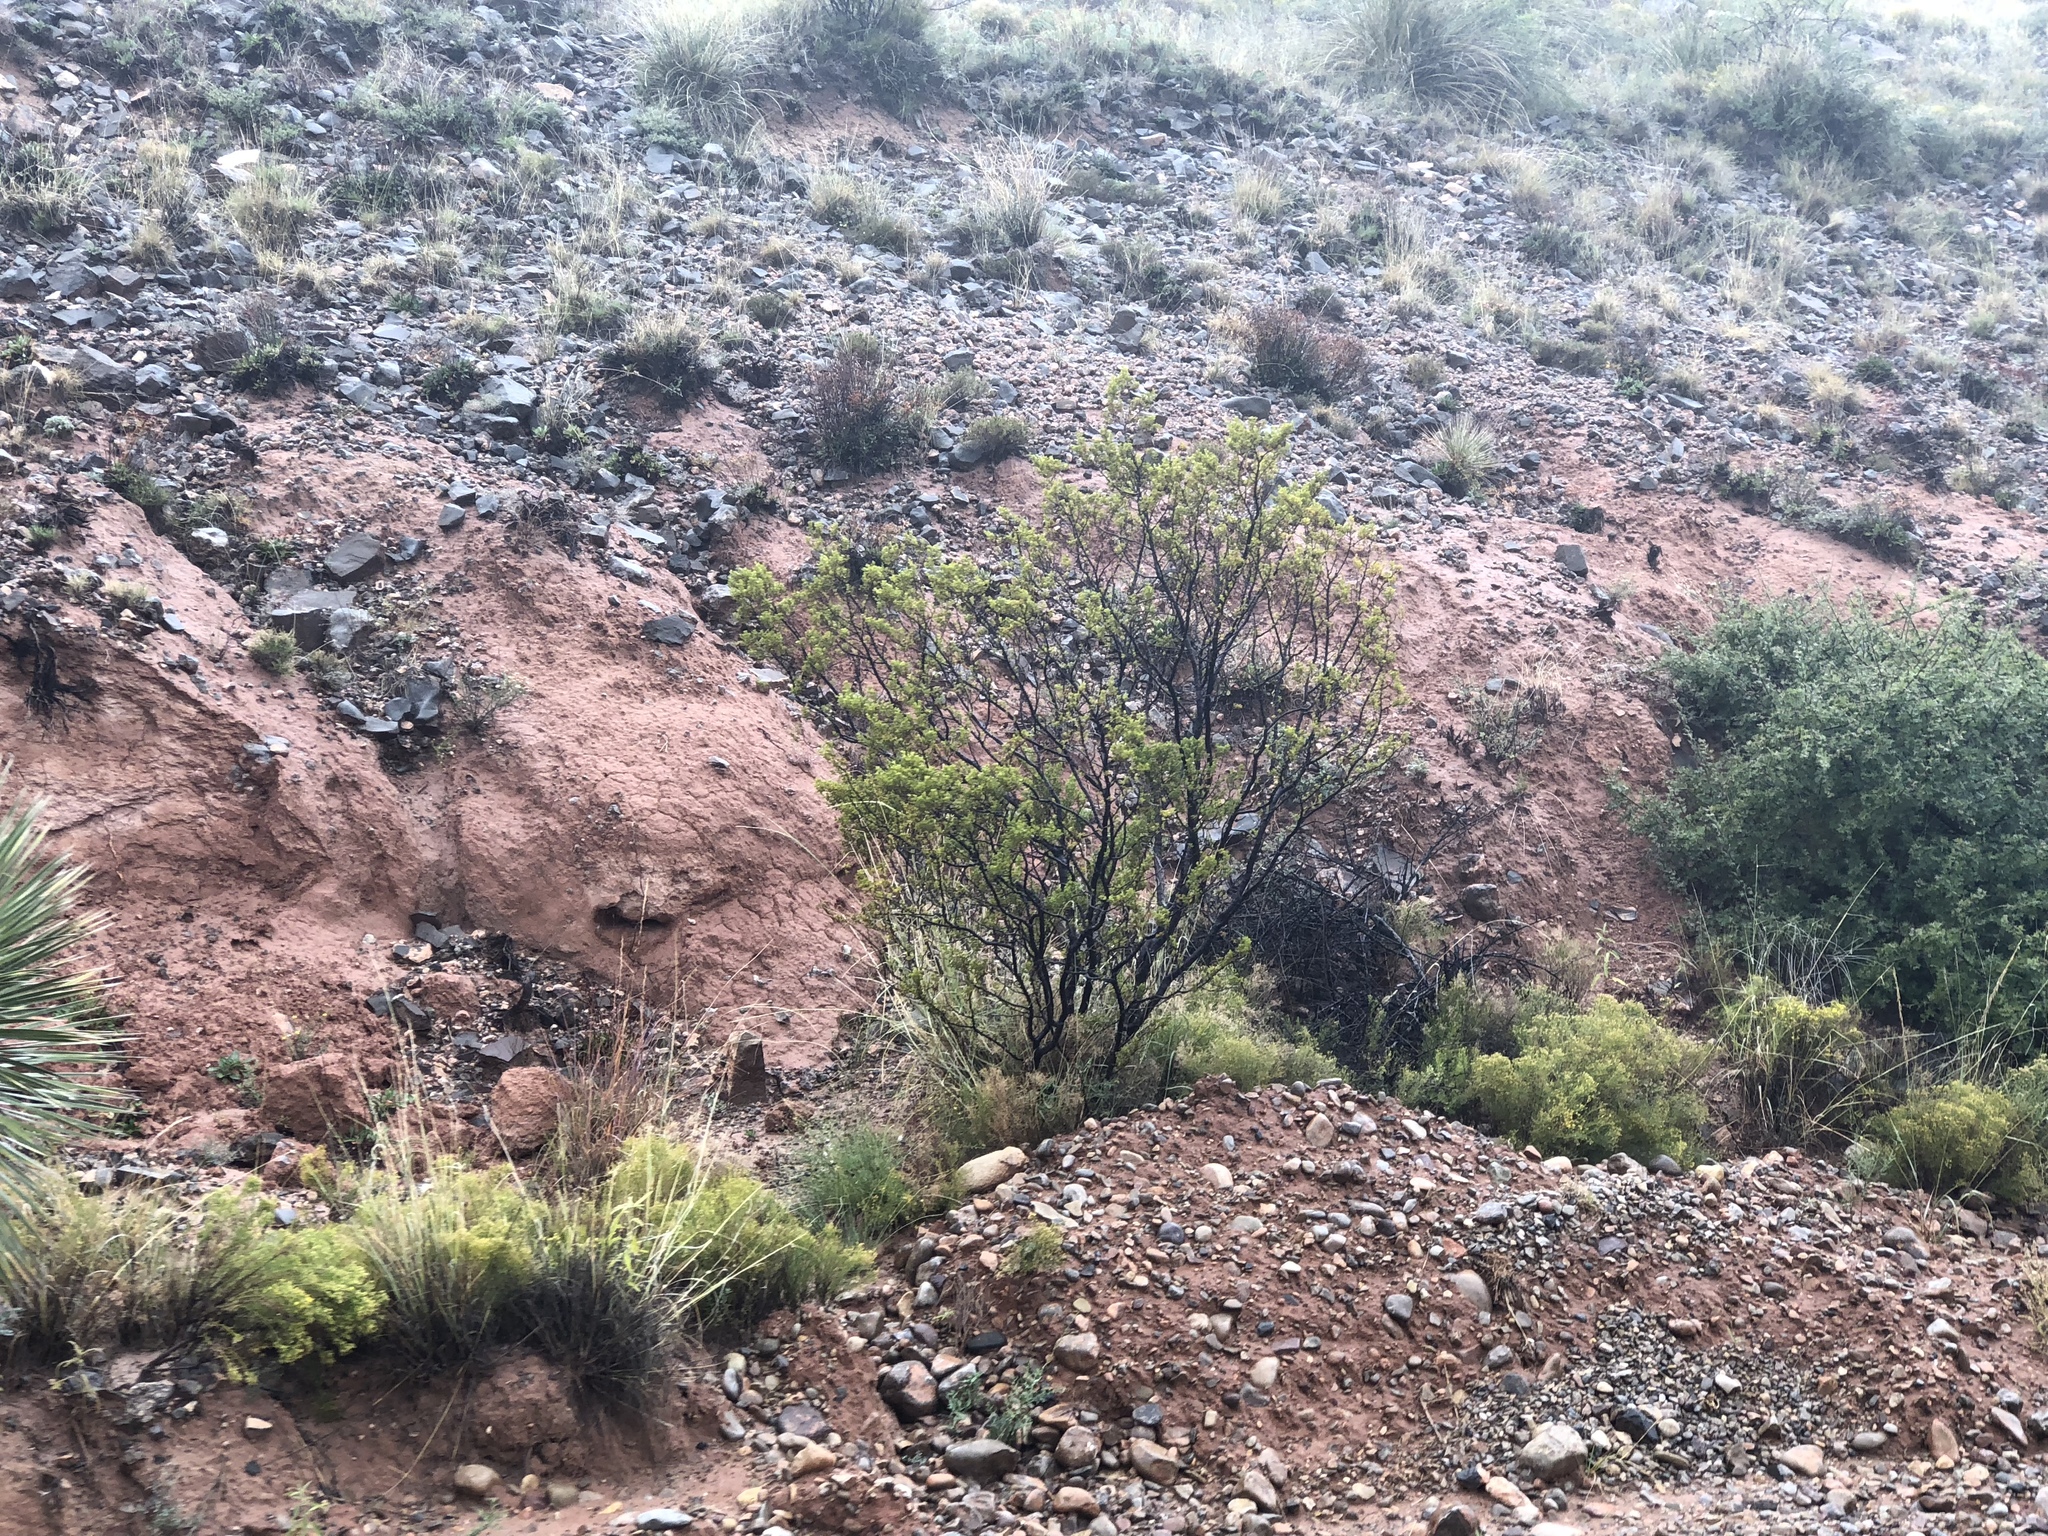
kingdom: Plantae
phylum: Tracheophyta
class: Magnoliopsida
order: Zygophyllales
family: Zygophyllaceae
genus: Larrea
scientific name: Larrea tridentata
